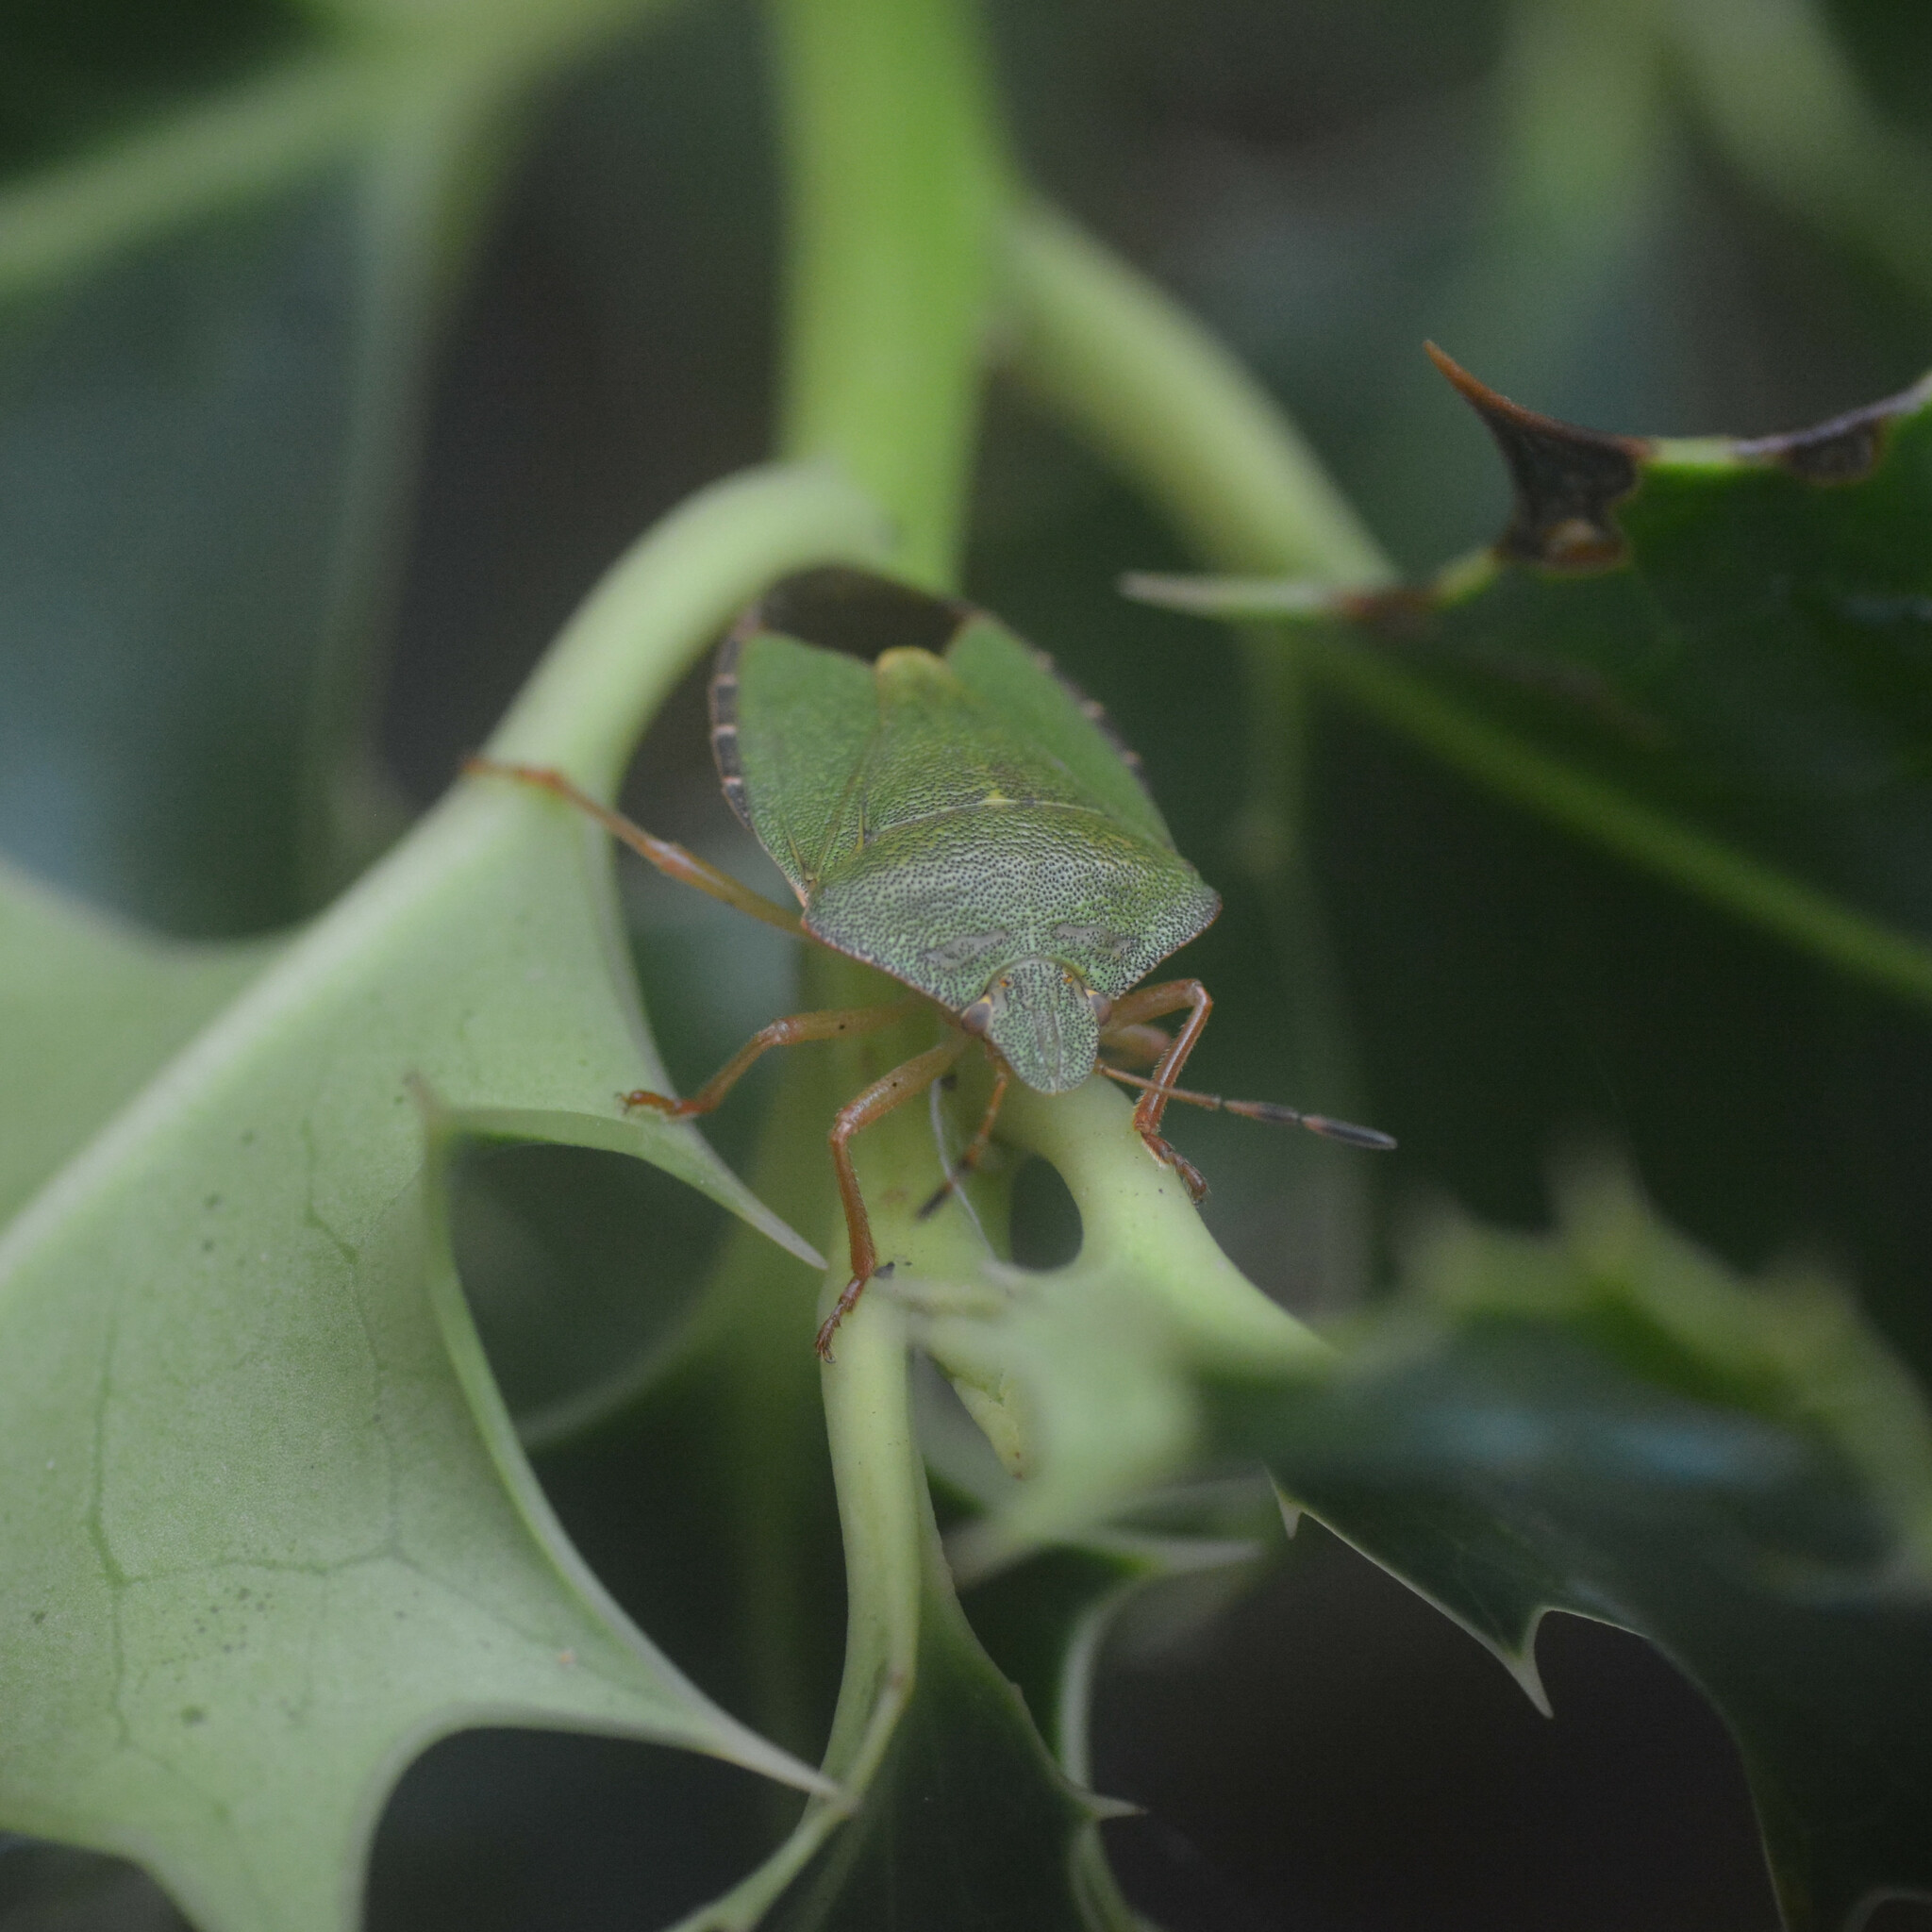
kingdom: Animalia
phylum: Arthropoda
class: Insecta
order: Hemiptera
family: Pentatomidae
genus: Palomena
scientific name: Palomena prasina
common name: Green shieldbug
